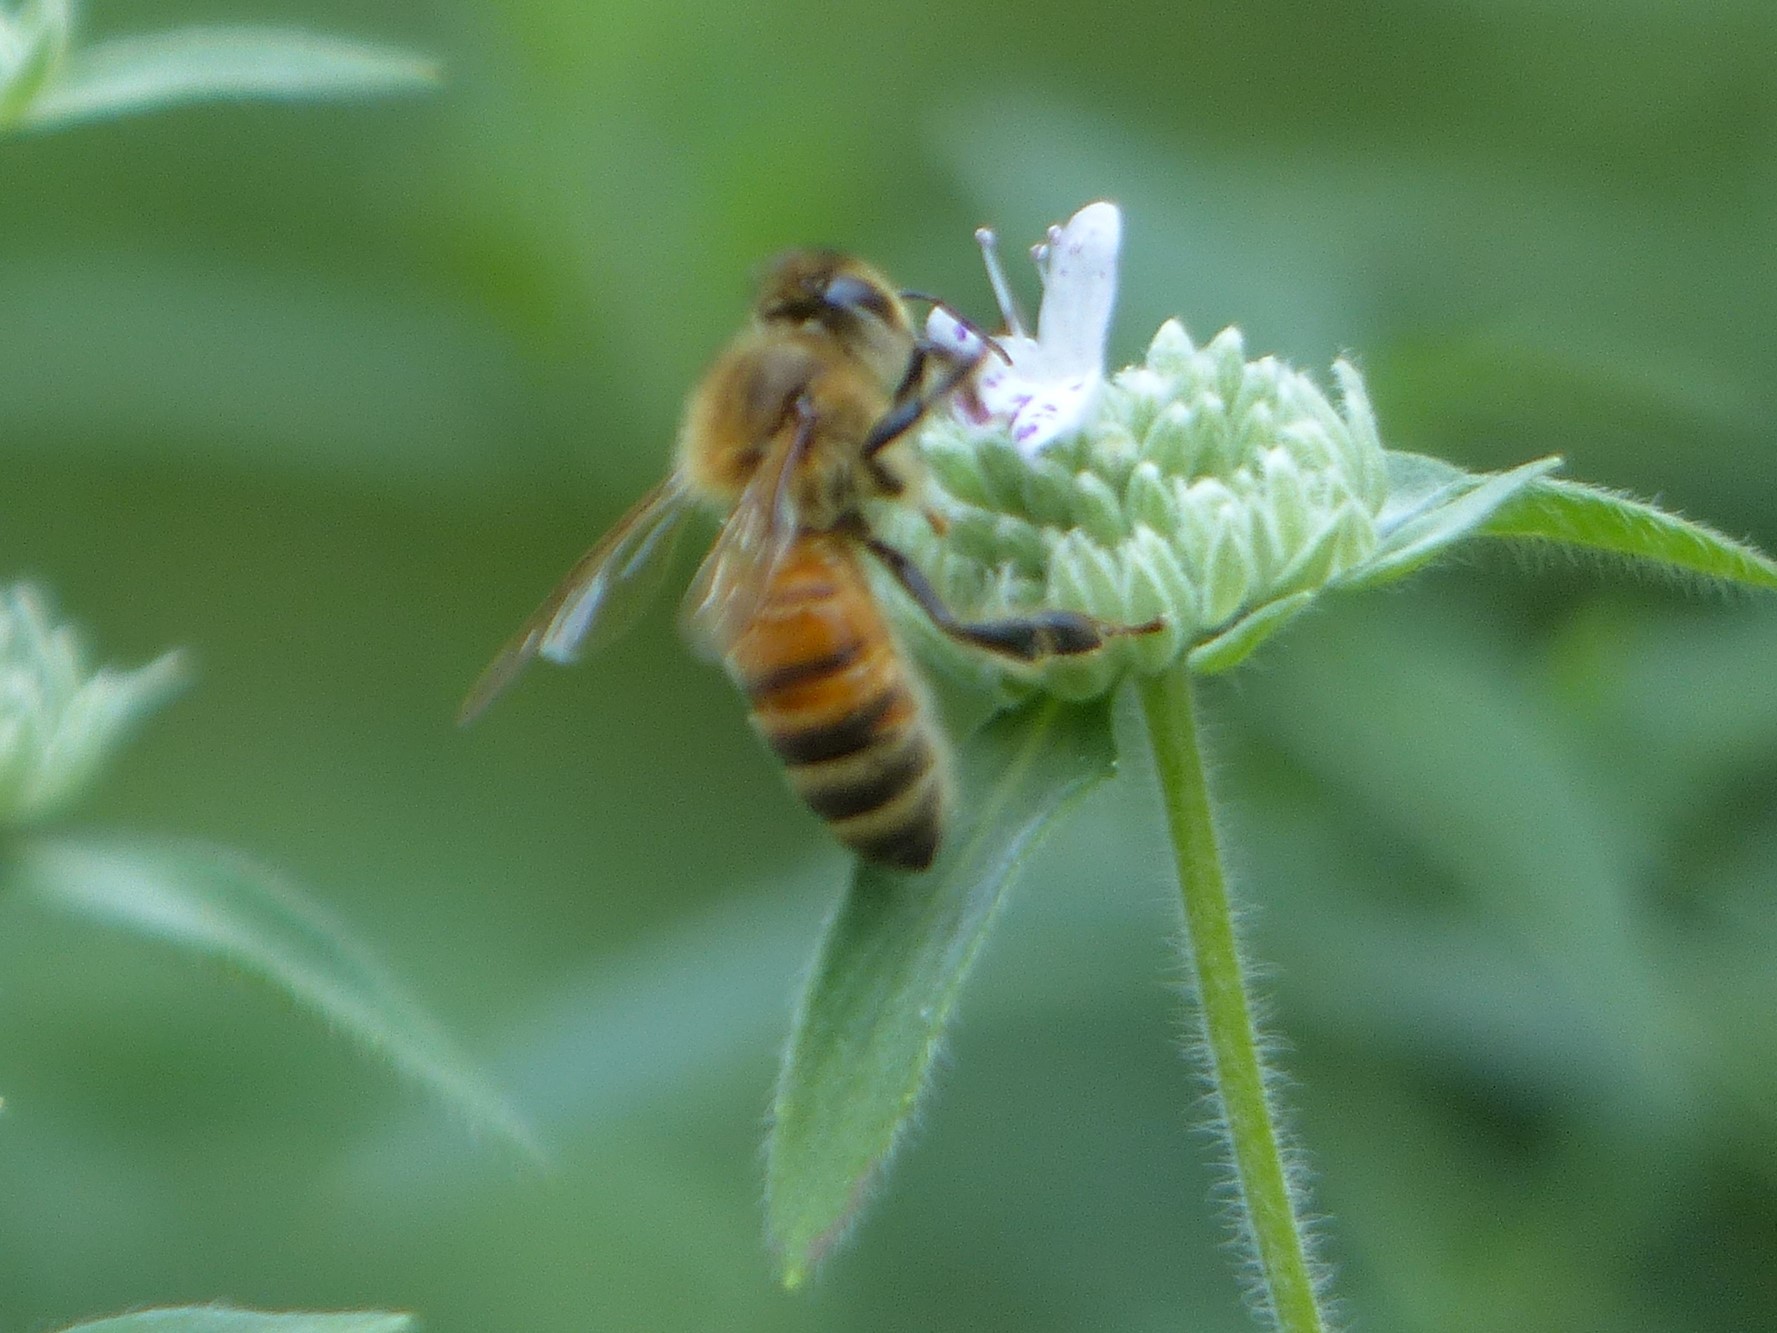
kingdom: Animalia
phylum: Arthropoda
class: Insecta
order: Hymenoptera
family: Apidae
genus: Apis
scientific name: Apis mellifera
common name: Honey bee
